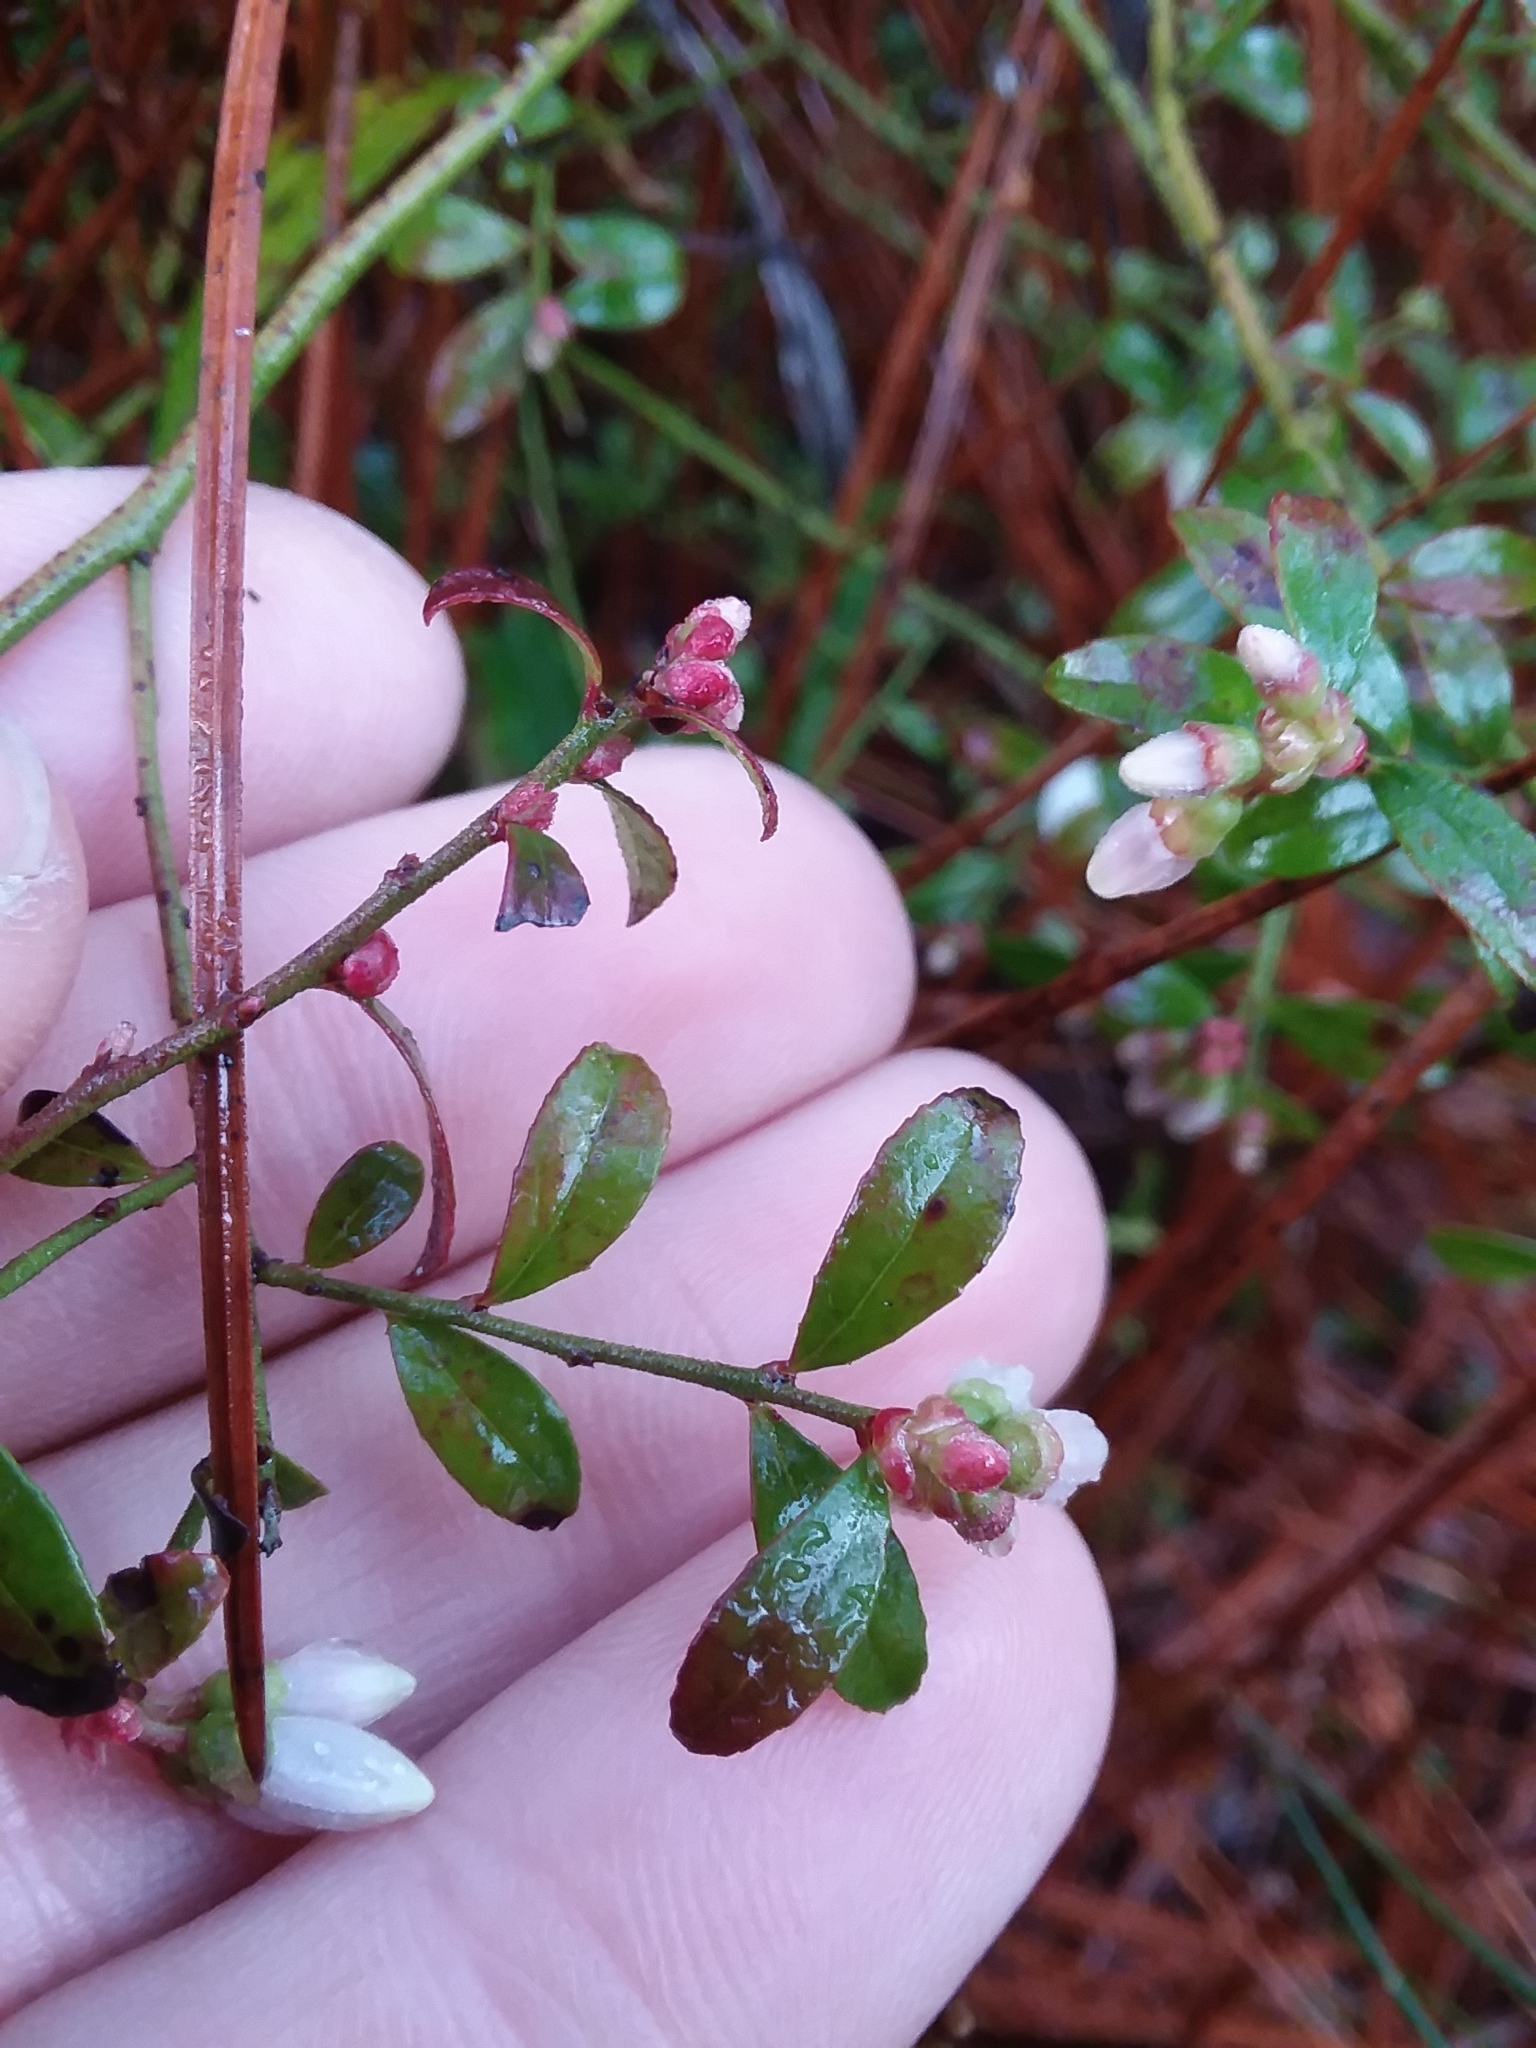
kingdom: Plantae
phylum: Tracheophyta
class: Magnoliopsida
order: Ericales
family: Ericaceae
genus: Vaccinium
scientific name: Vaccinium darrowii
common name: Darrow's blueberry
